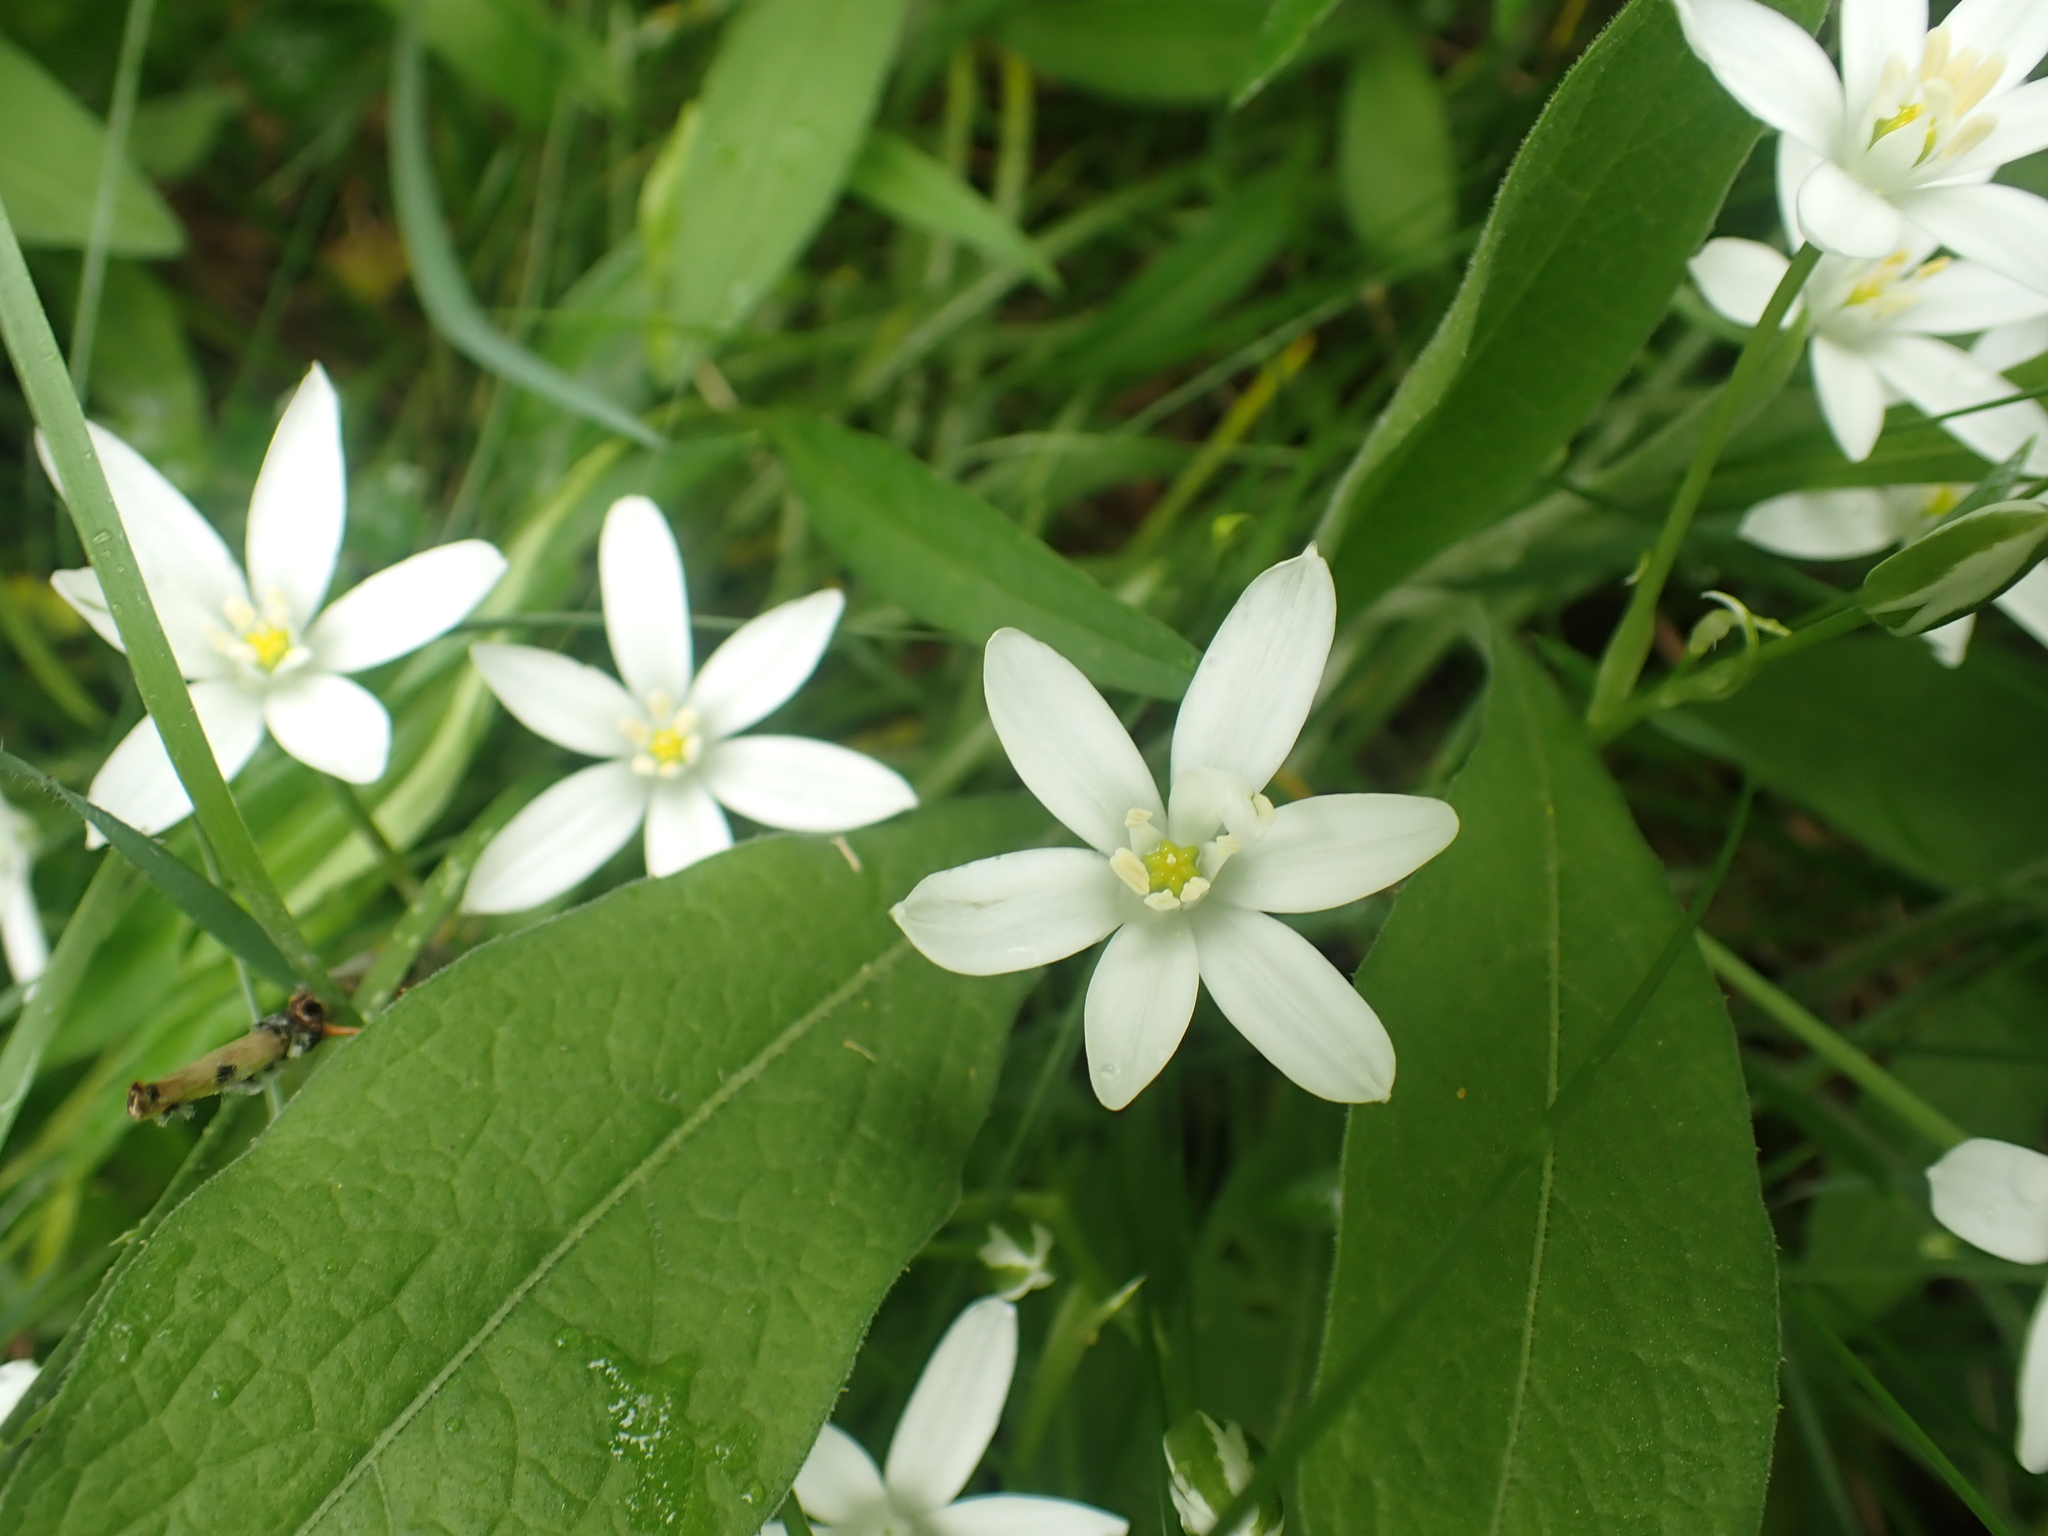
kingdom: Plantae
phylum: Tracheophyta
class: Liliopsida
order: Asparagales
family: Asparagaceae
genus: Ornithogalum
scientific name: Ornithogalum umbellatum
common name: Garden star-of-bethlehem
